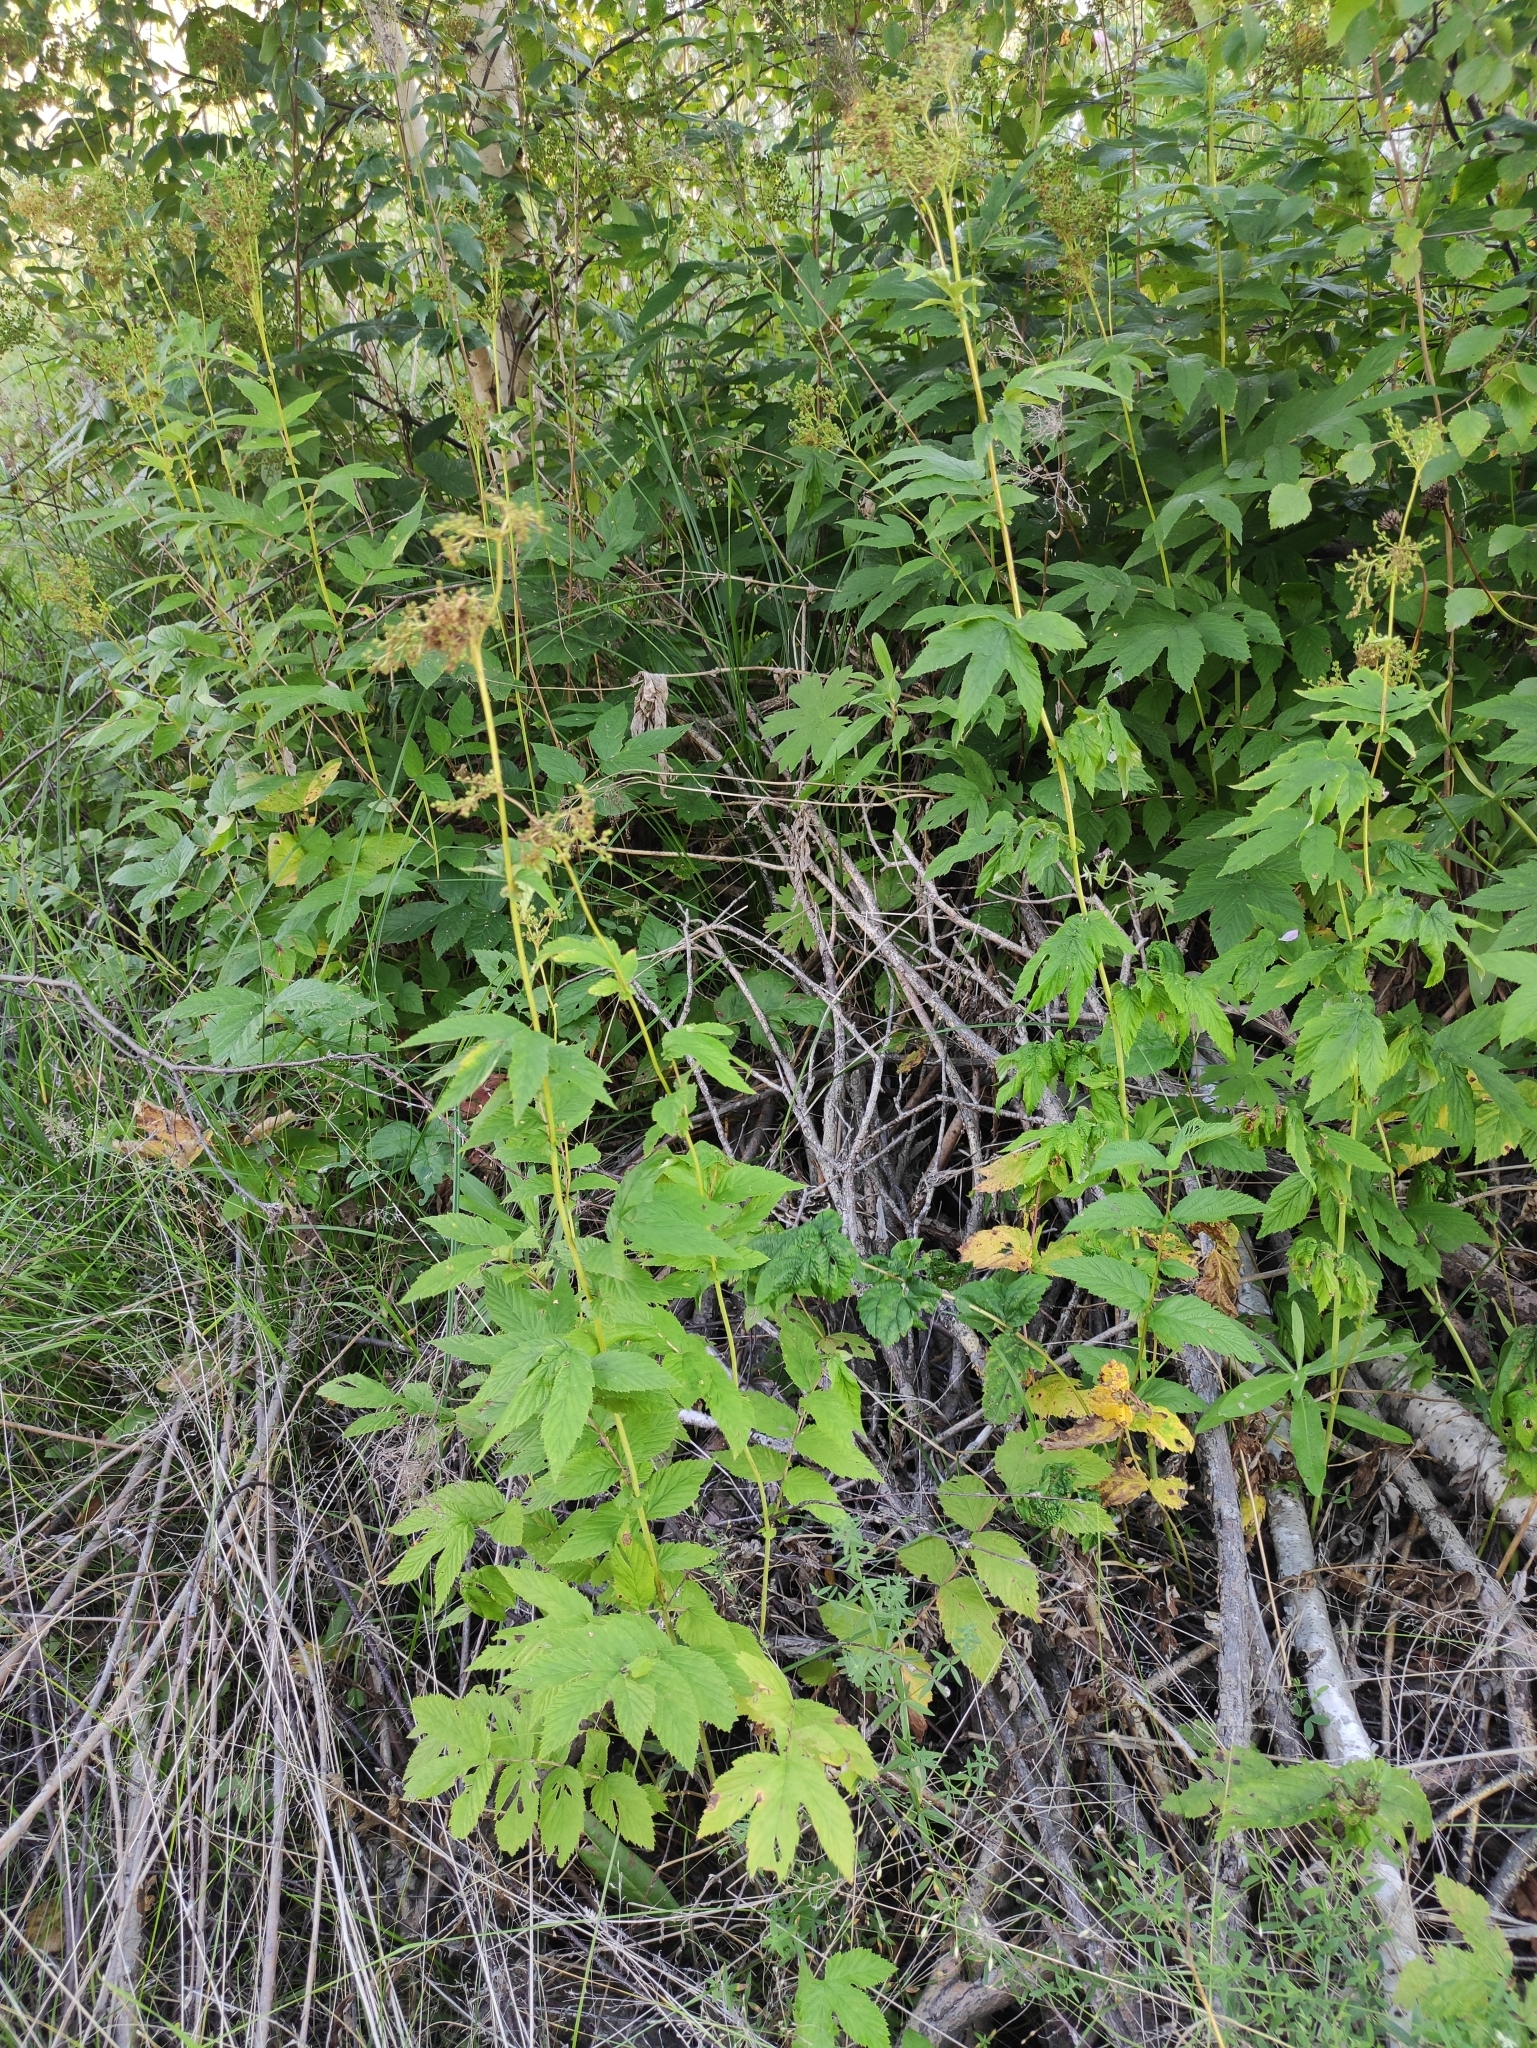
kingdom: Plantae
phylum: Tracheophyta
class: Magnoliopsida
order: Rosales
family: Rosaceae
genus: Filipendula
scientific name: Filipendula ulmaria
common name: Meadowsweet
